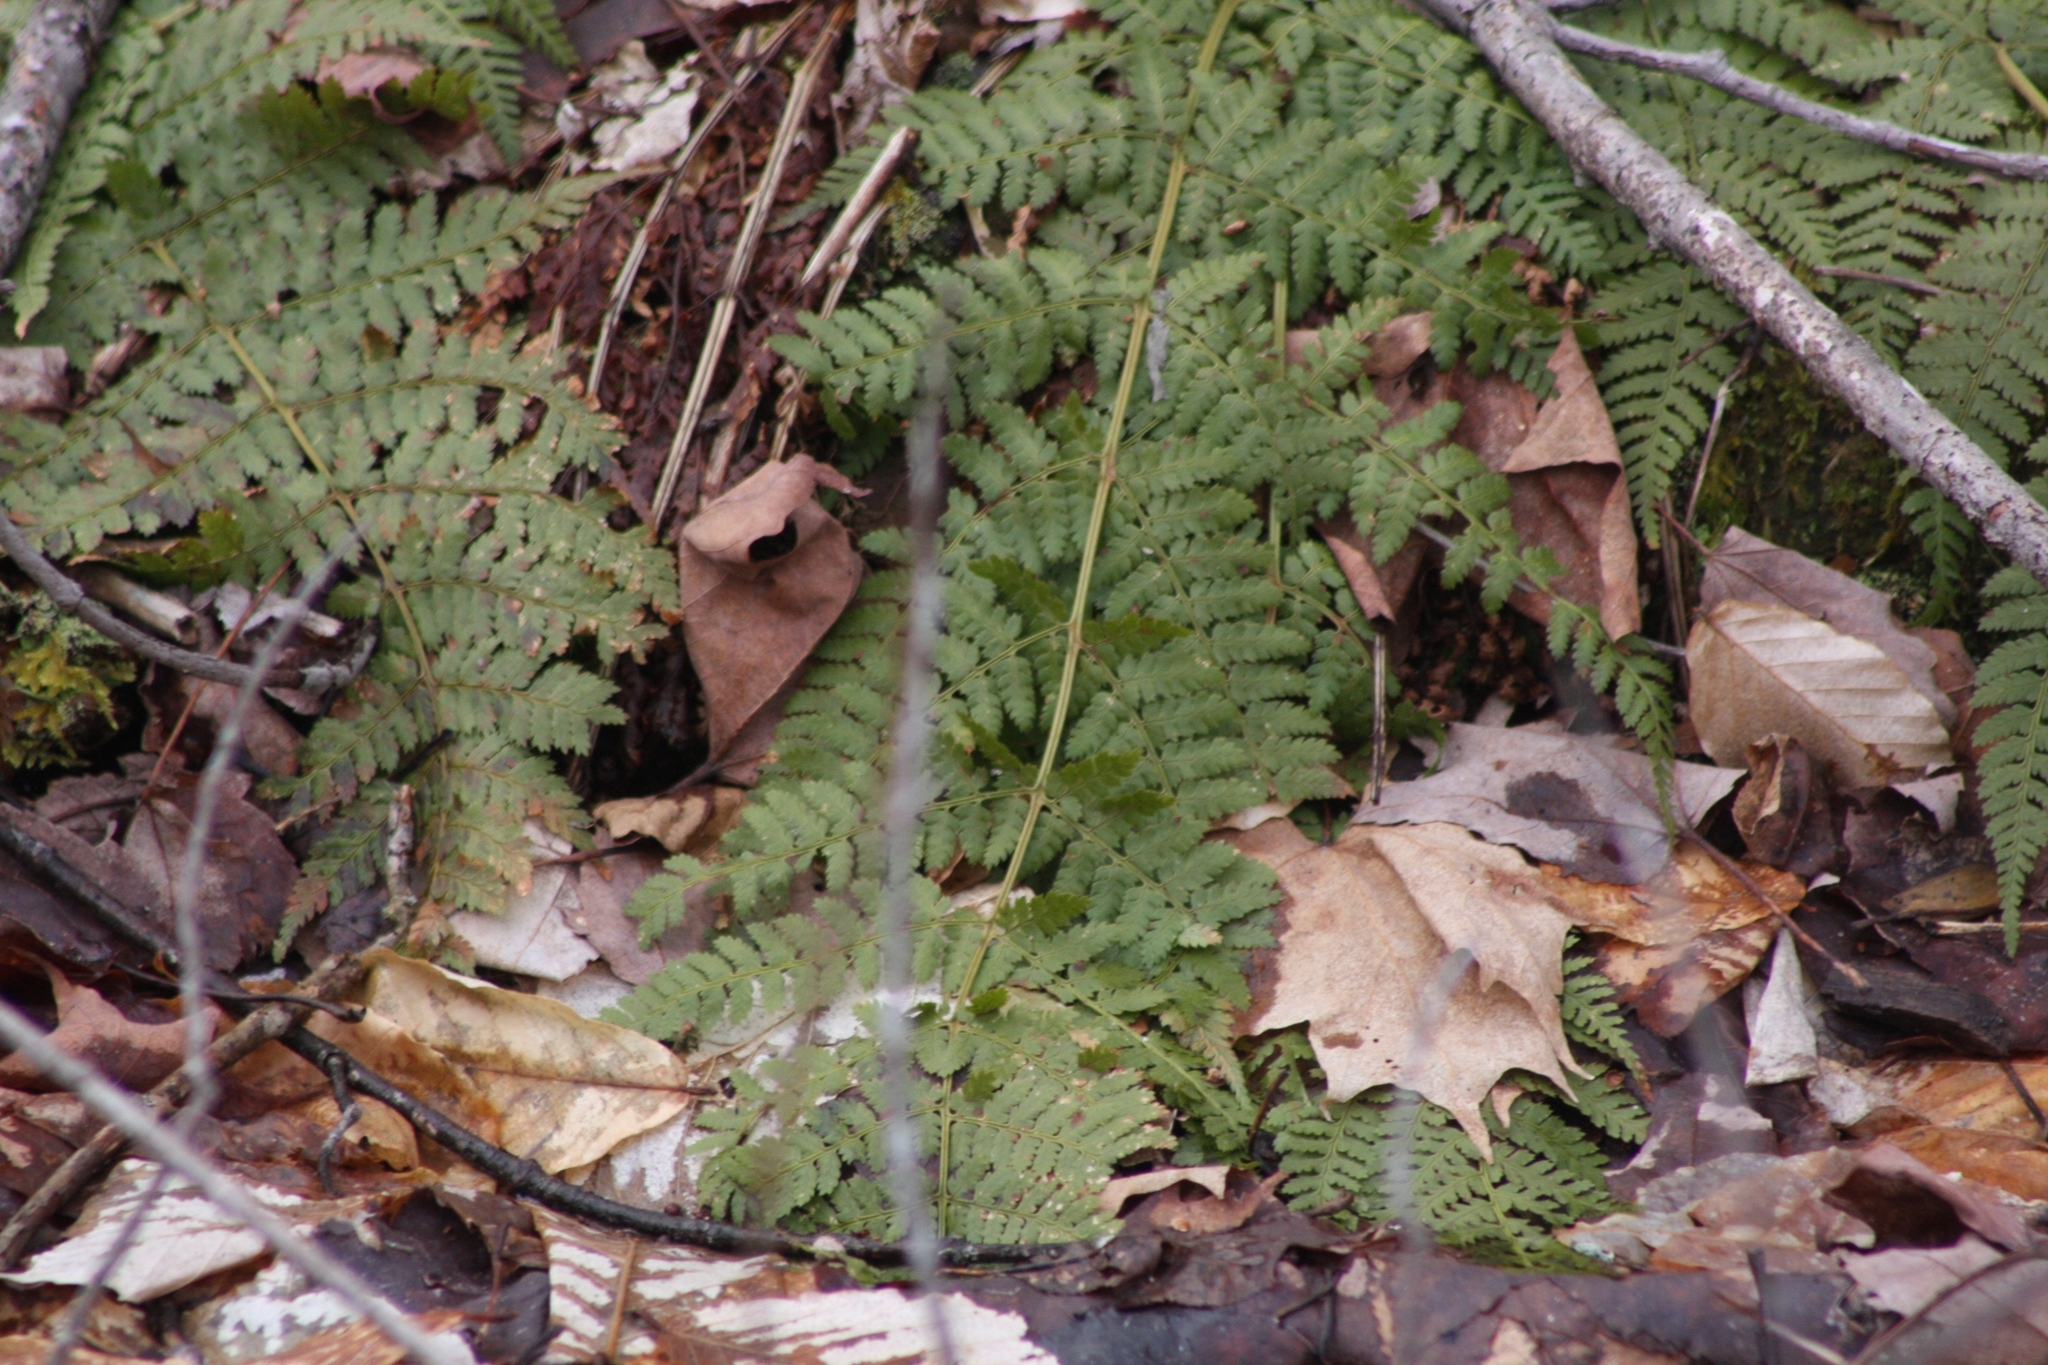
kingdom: Plantae
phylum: Tracheophyta
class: Polypodiopsida
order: Polypodiales
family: Dryopteridaceae
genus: Dryopteris
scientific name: Dryopteris intermedia
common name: Evergreen wood fern
